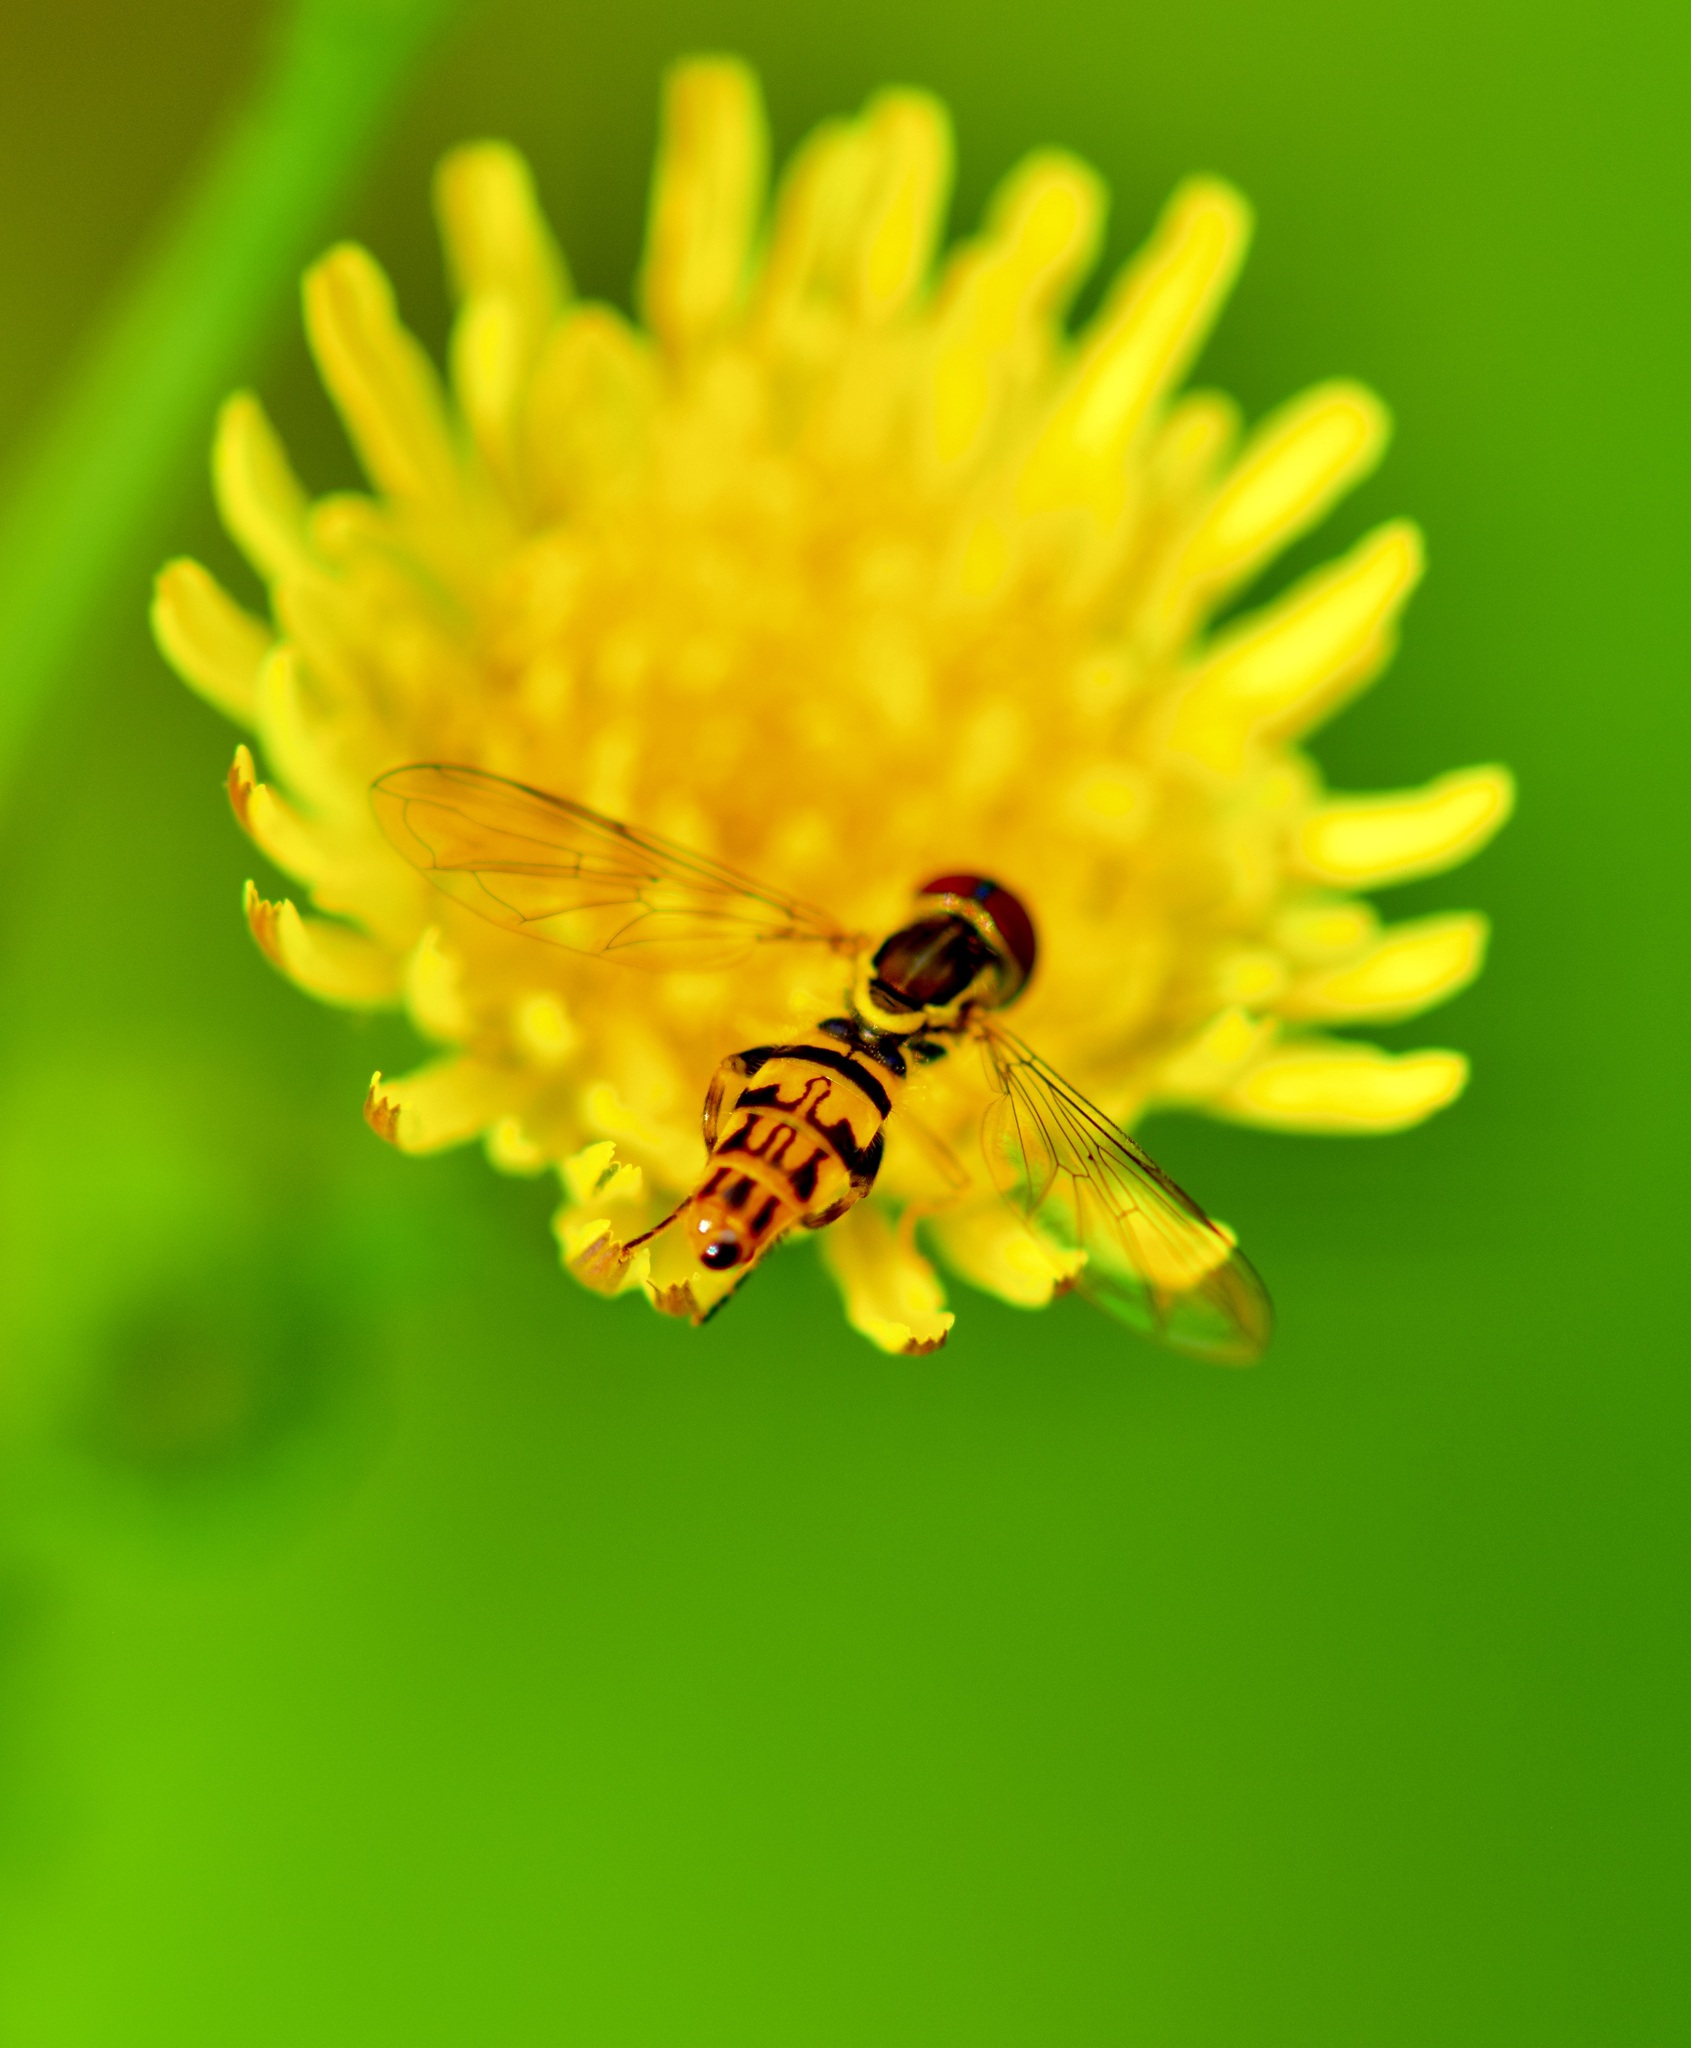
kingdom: Animalia
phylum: Arthropoda
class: Insecta
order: Diptera
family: Syrphidae
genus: Toxomerus
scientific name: Toxomerus geminatus
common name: Eastern calligrapher
